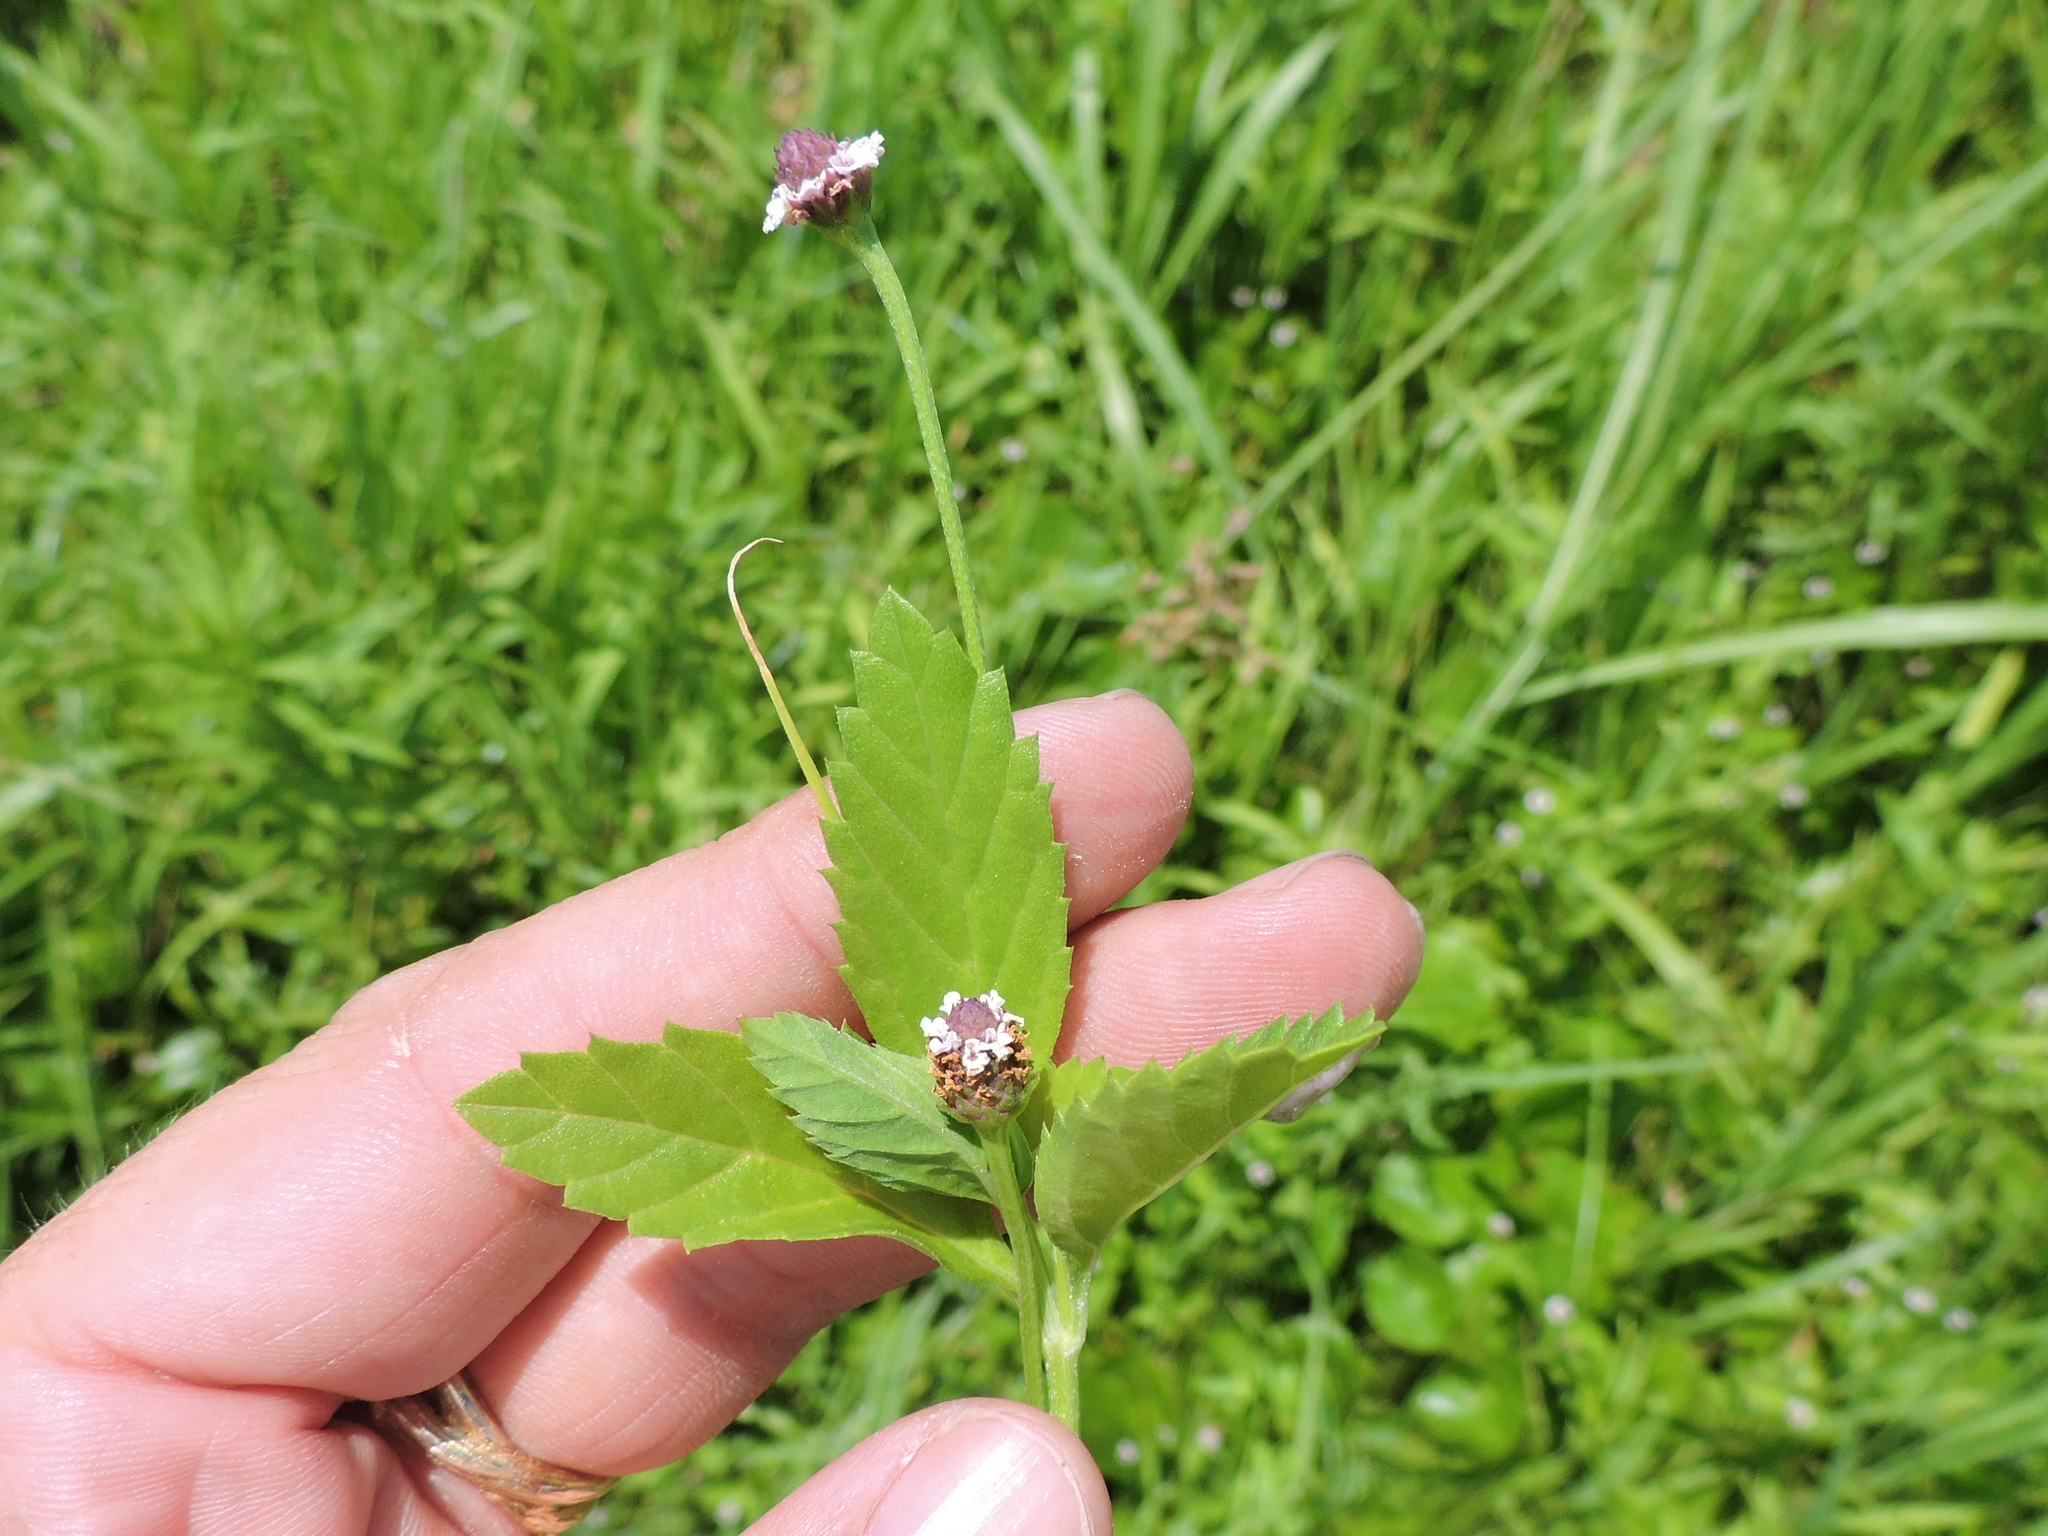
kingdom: Plantae
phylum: Tracheophyta
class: Magnoliopsida
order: Lamiales
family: Verbenaceae
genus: Phyla
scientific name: Phyla lanceolata
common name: Northern fogfruit
